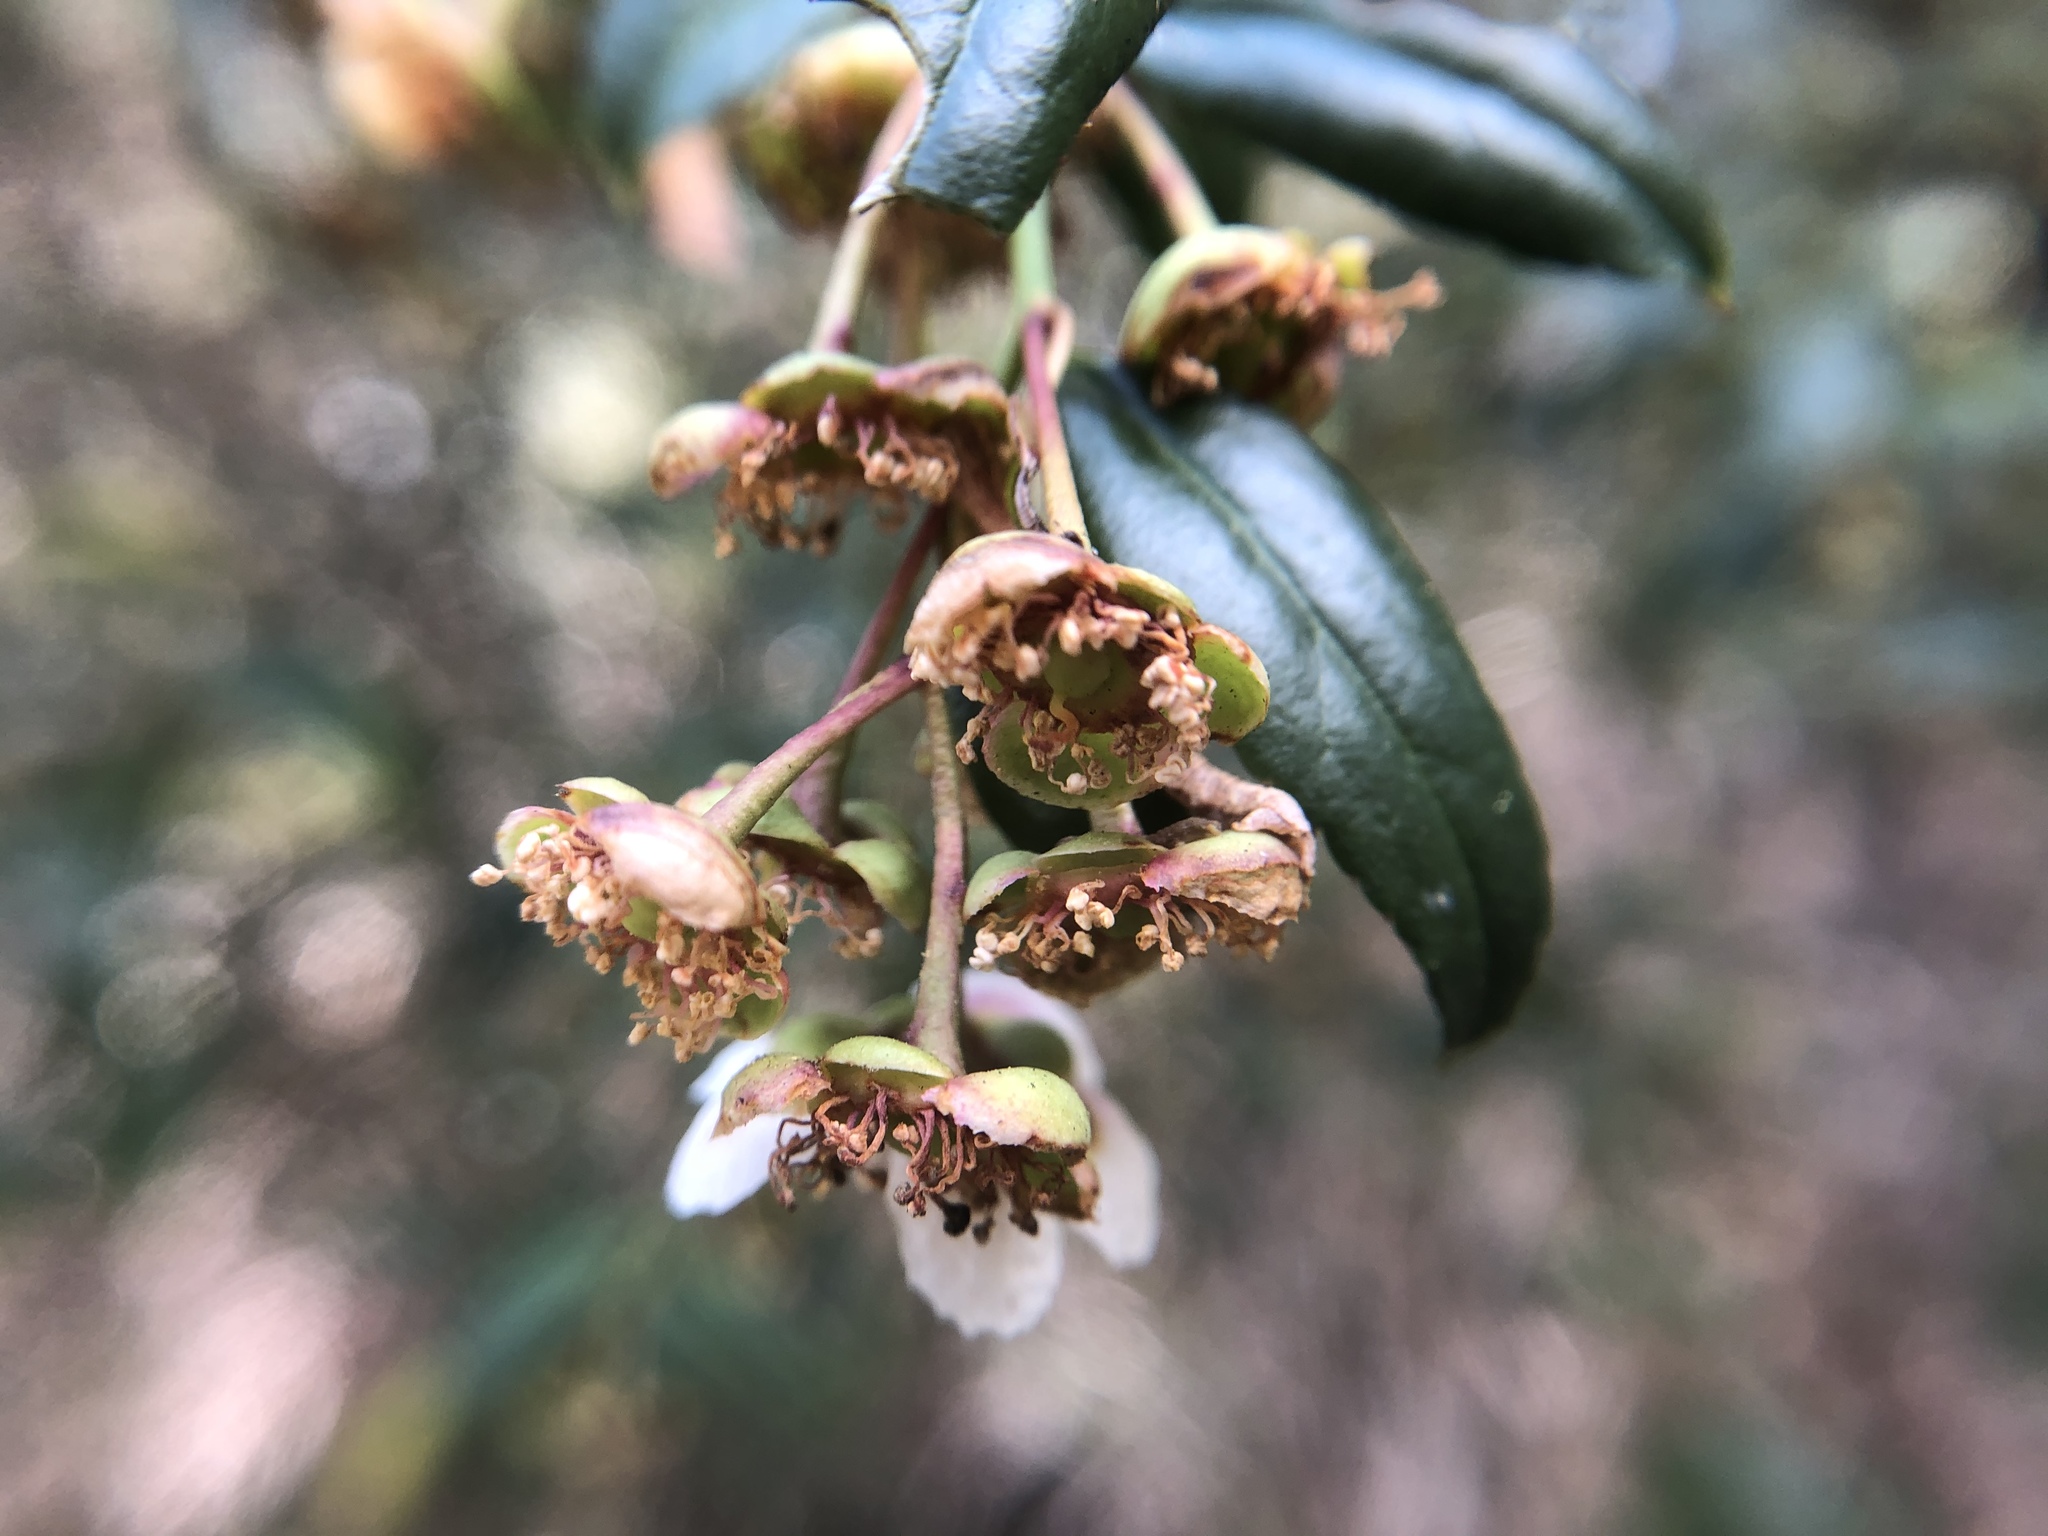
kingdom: Plantae
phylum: Tracheophyta
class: Magnoliopsida
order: Rosales
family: Rosaceae
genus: Prinsepia
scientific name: Prinsepia scandens
